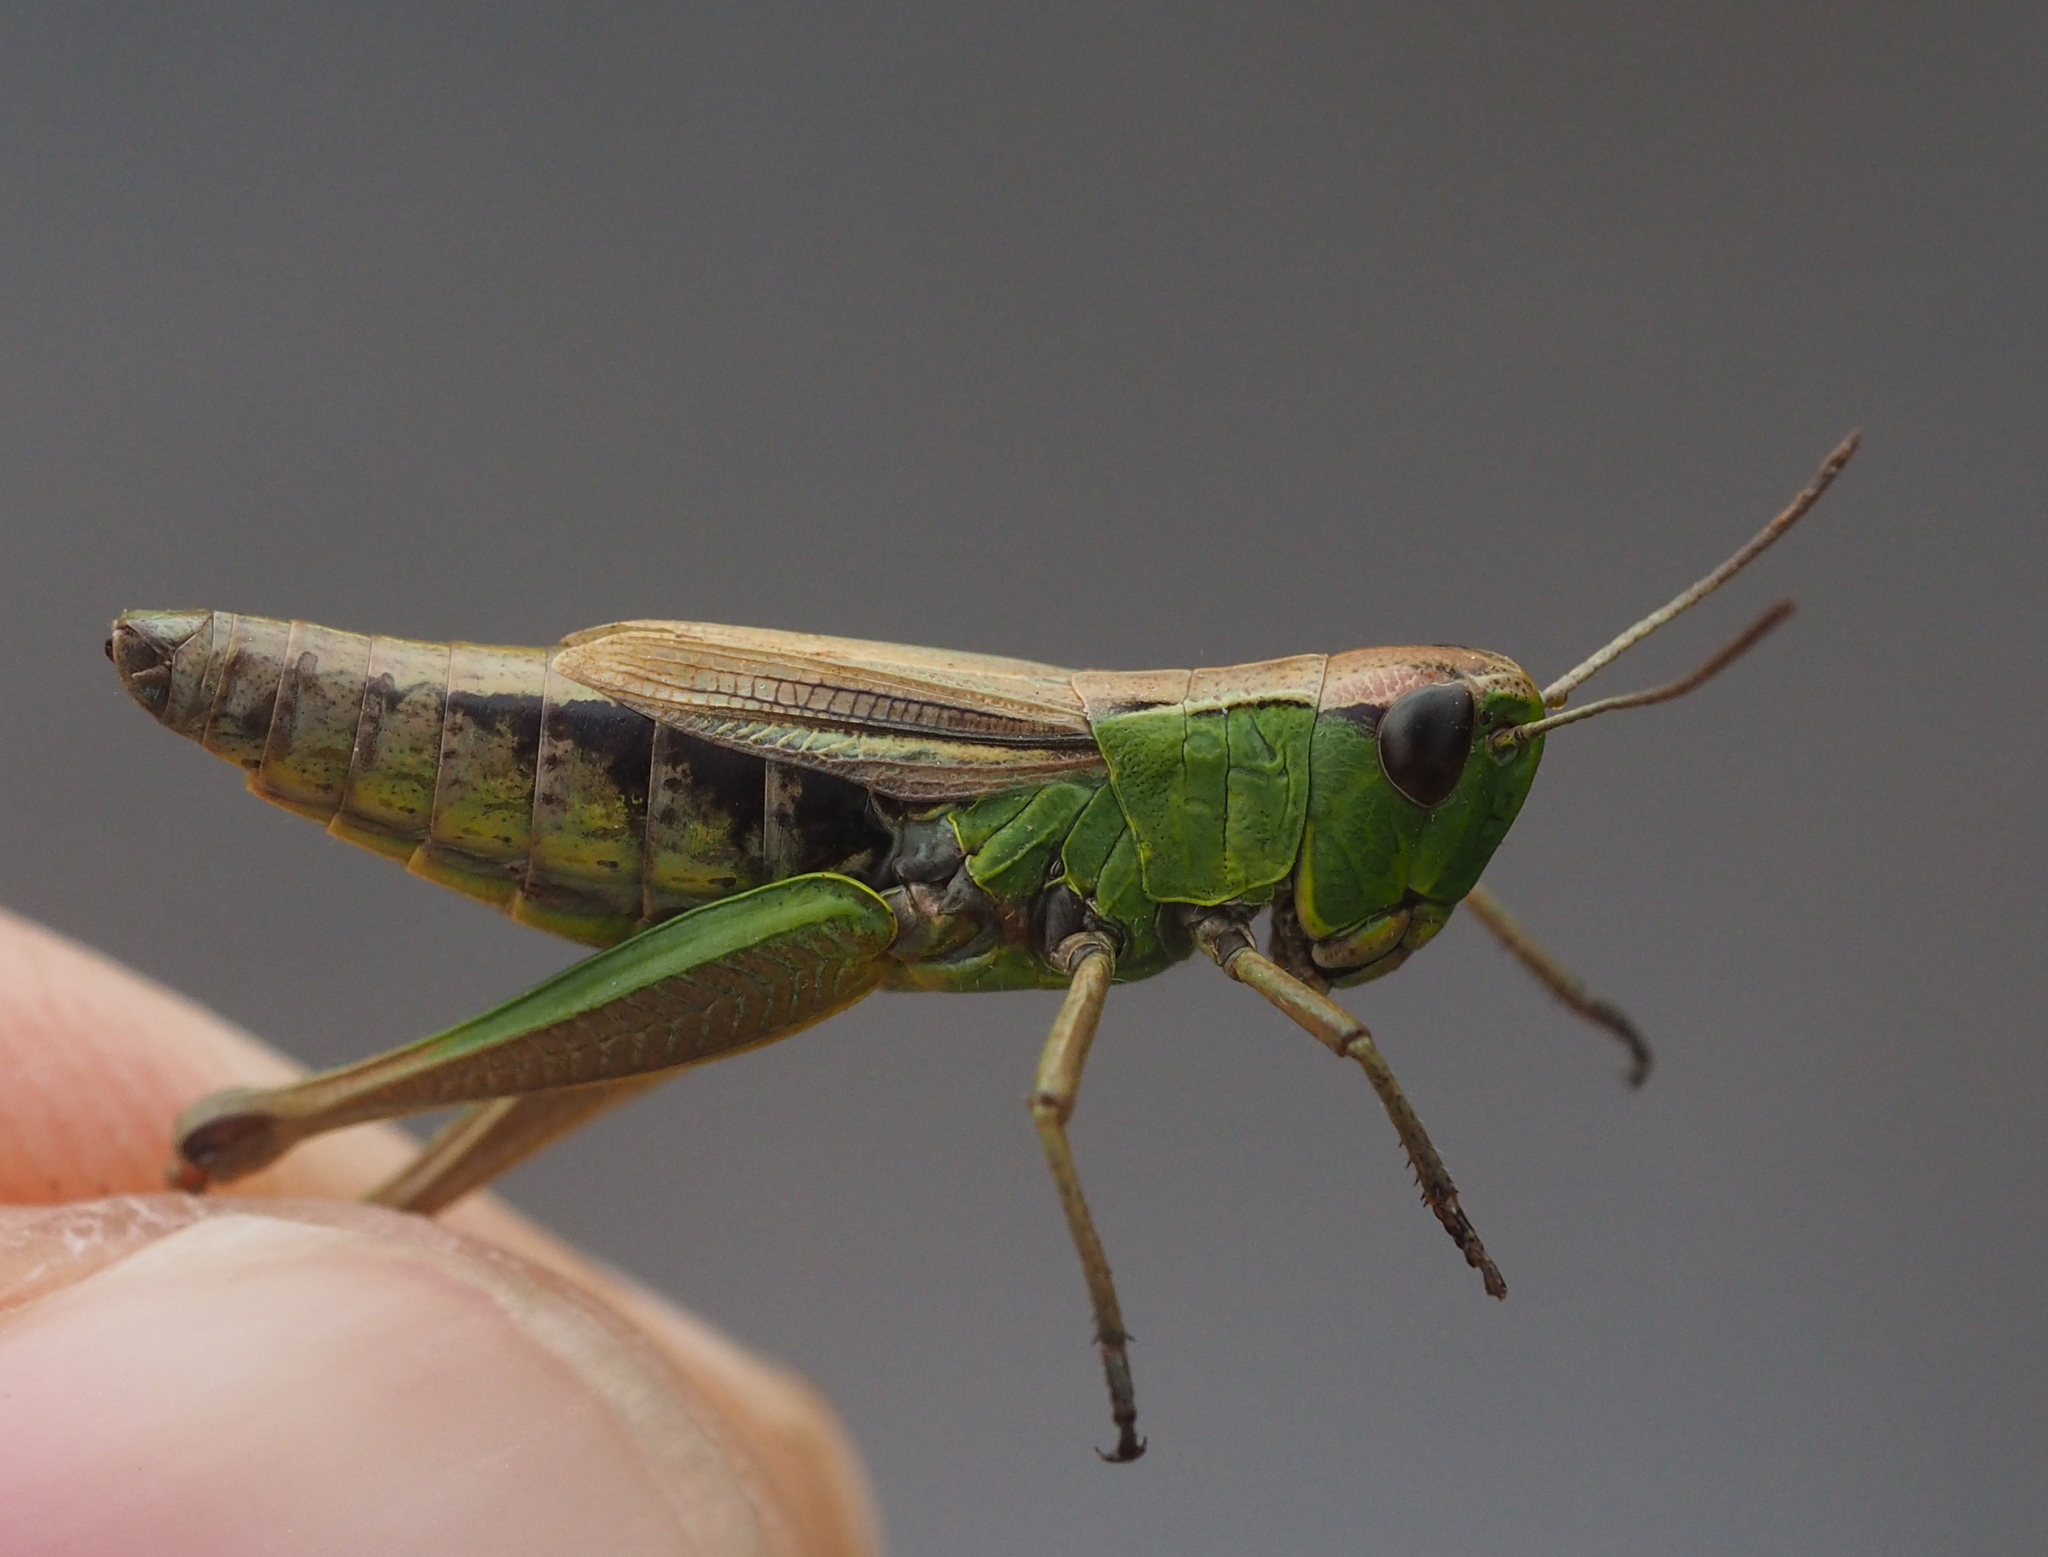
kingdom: Animalia
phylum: Arthropoda
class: Insecta
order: Orthoptera
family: Acrididae
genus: Pseudochorthippus
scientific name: Pseudochorthippus parallelus
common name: Meadow grasshopper
